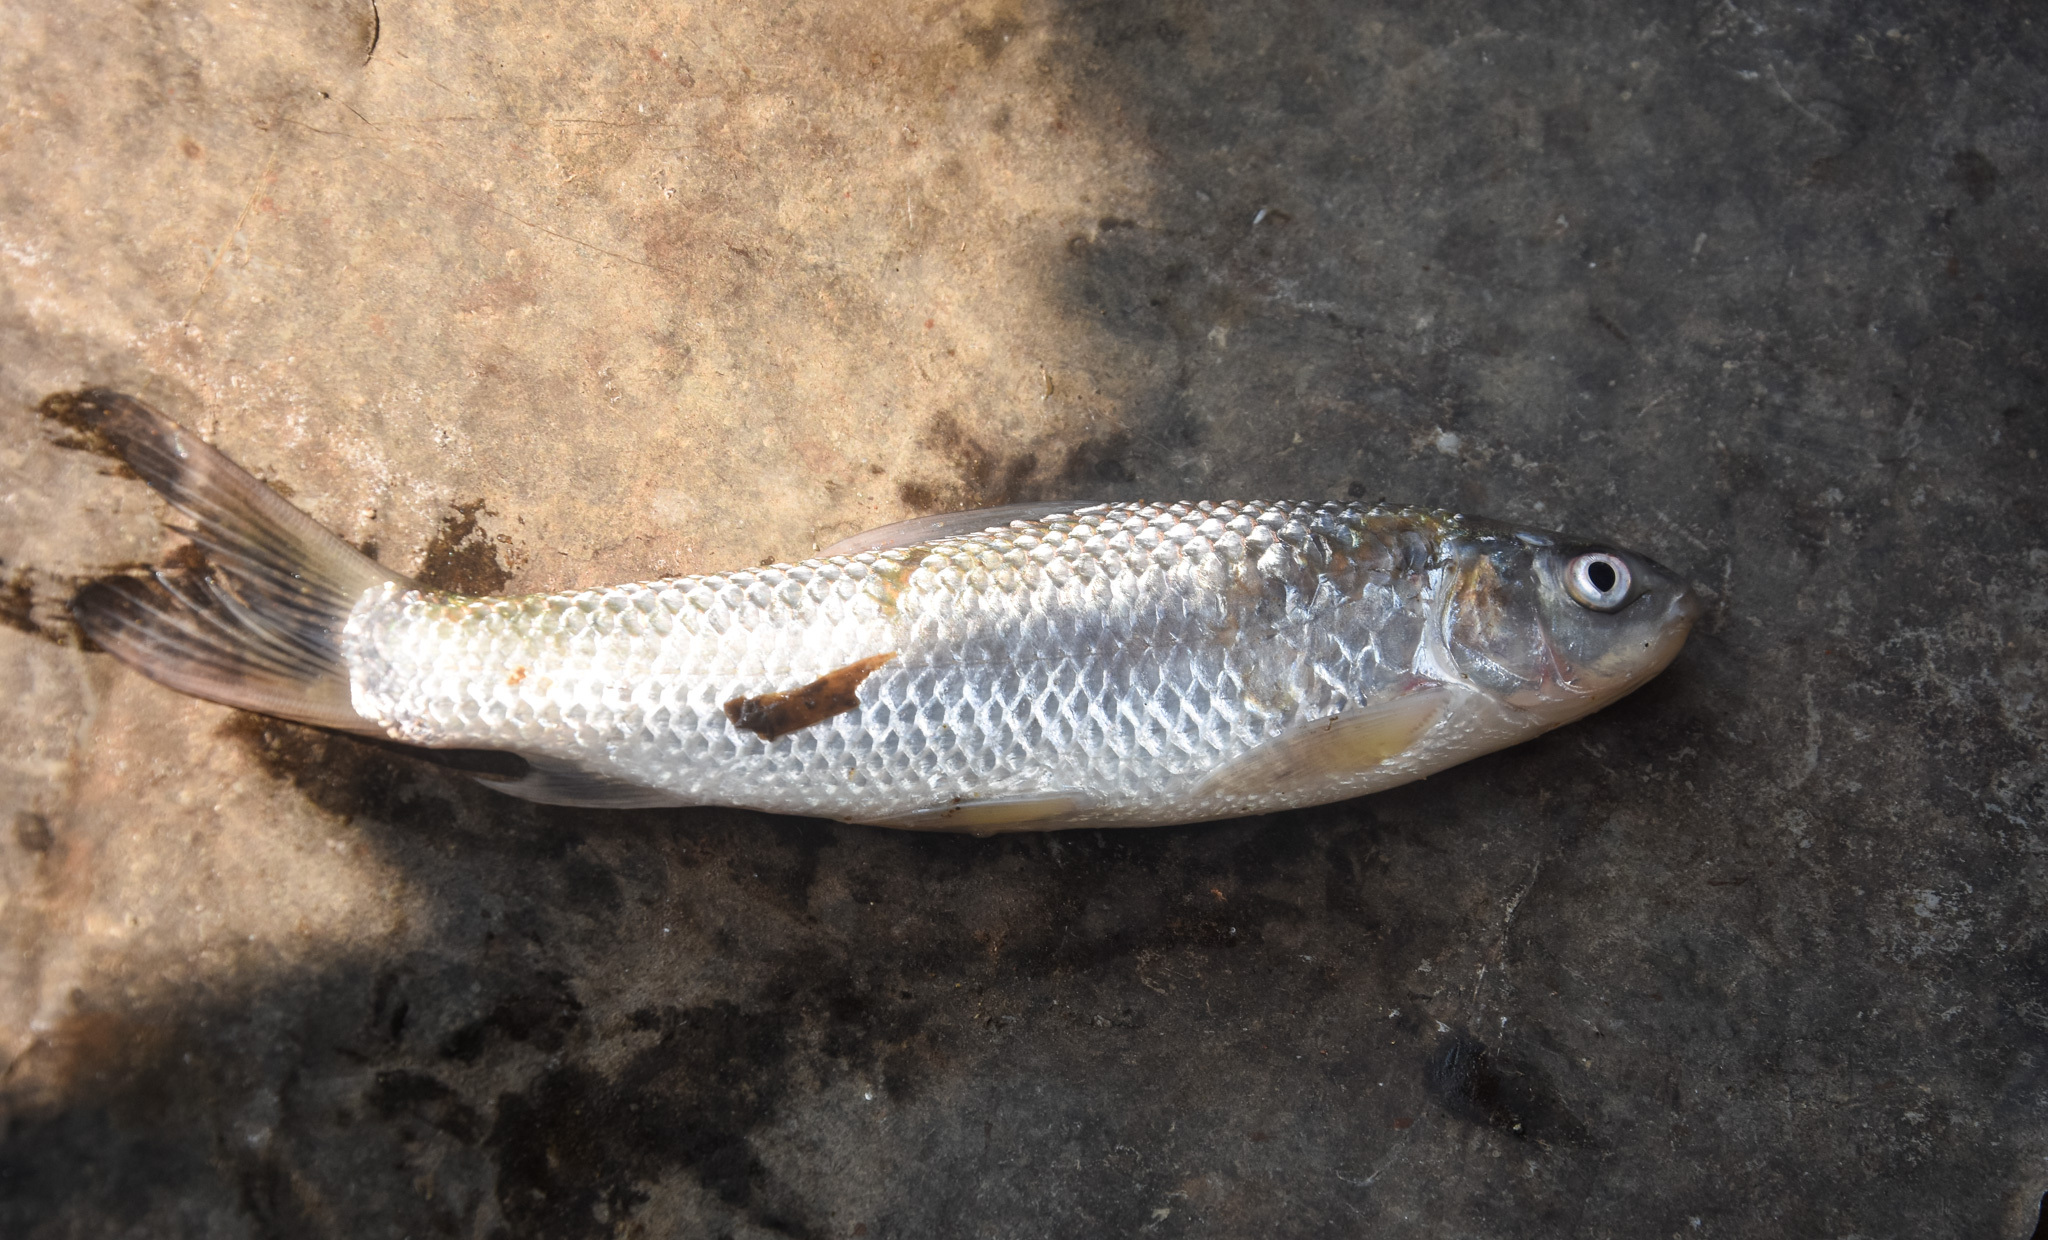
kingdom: Animalia
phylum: Chordata
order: Cypriniformes
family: Cyprinidae
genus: Labeo
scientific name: Labeo bata
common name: Bata
